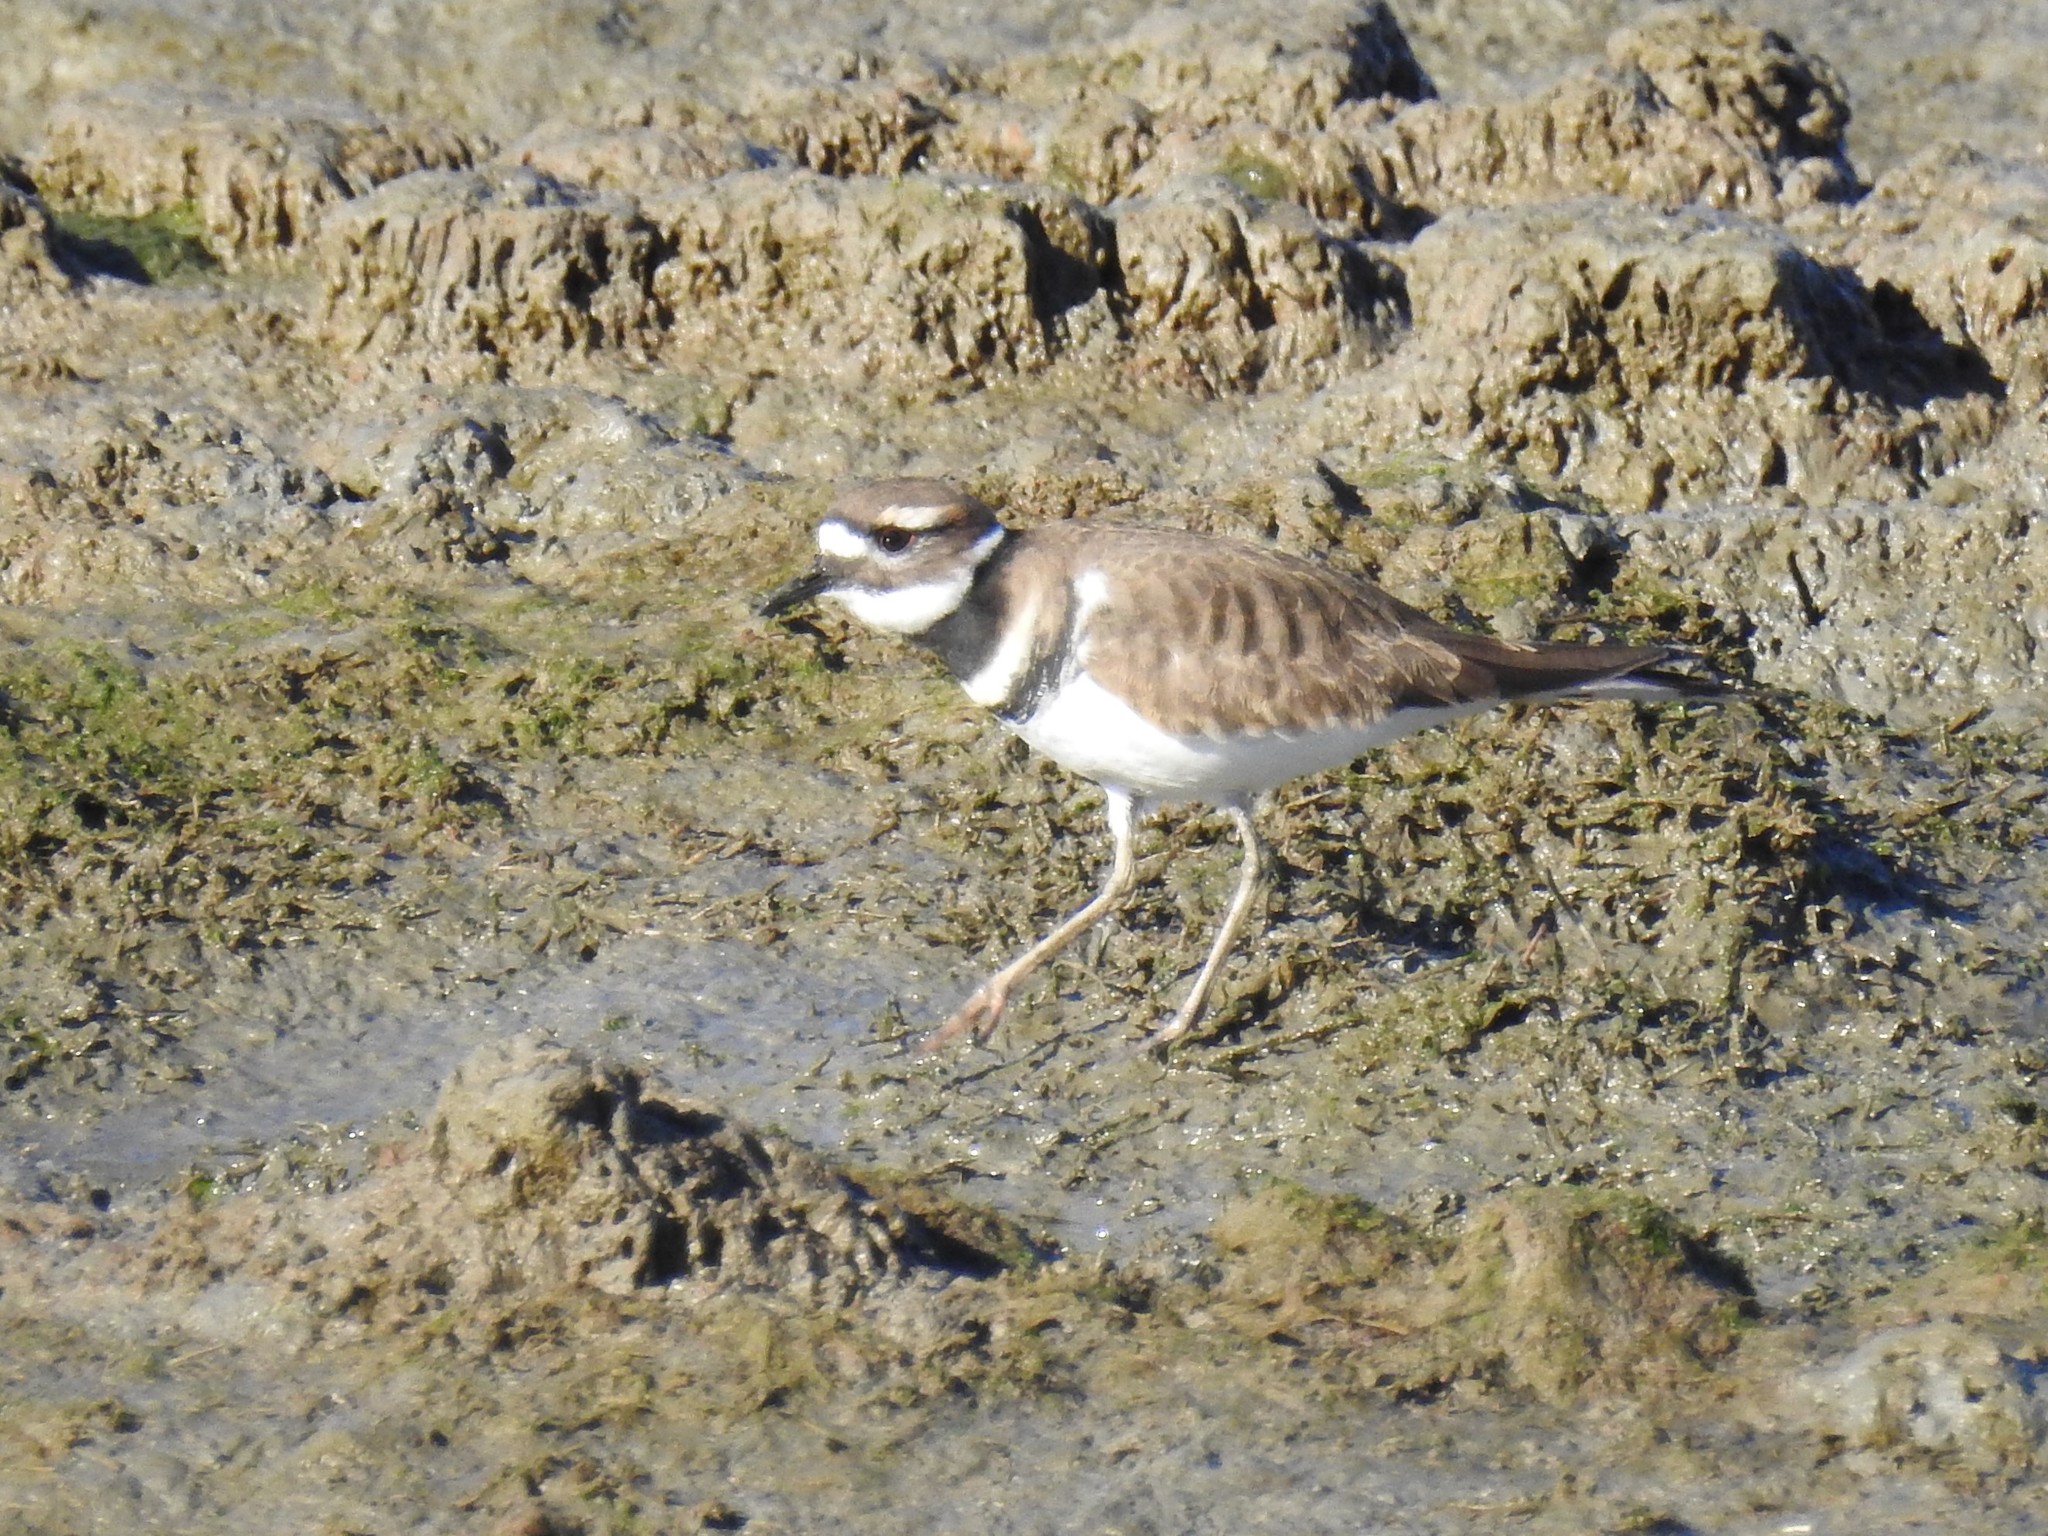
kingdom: Animalia
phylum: Chordata
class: Aves
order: Charadriiformes
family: Charadriidae
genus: Charadrius
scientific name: Charadrius vociferus
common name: Killdeer
